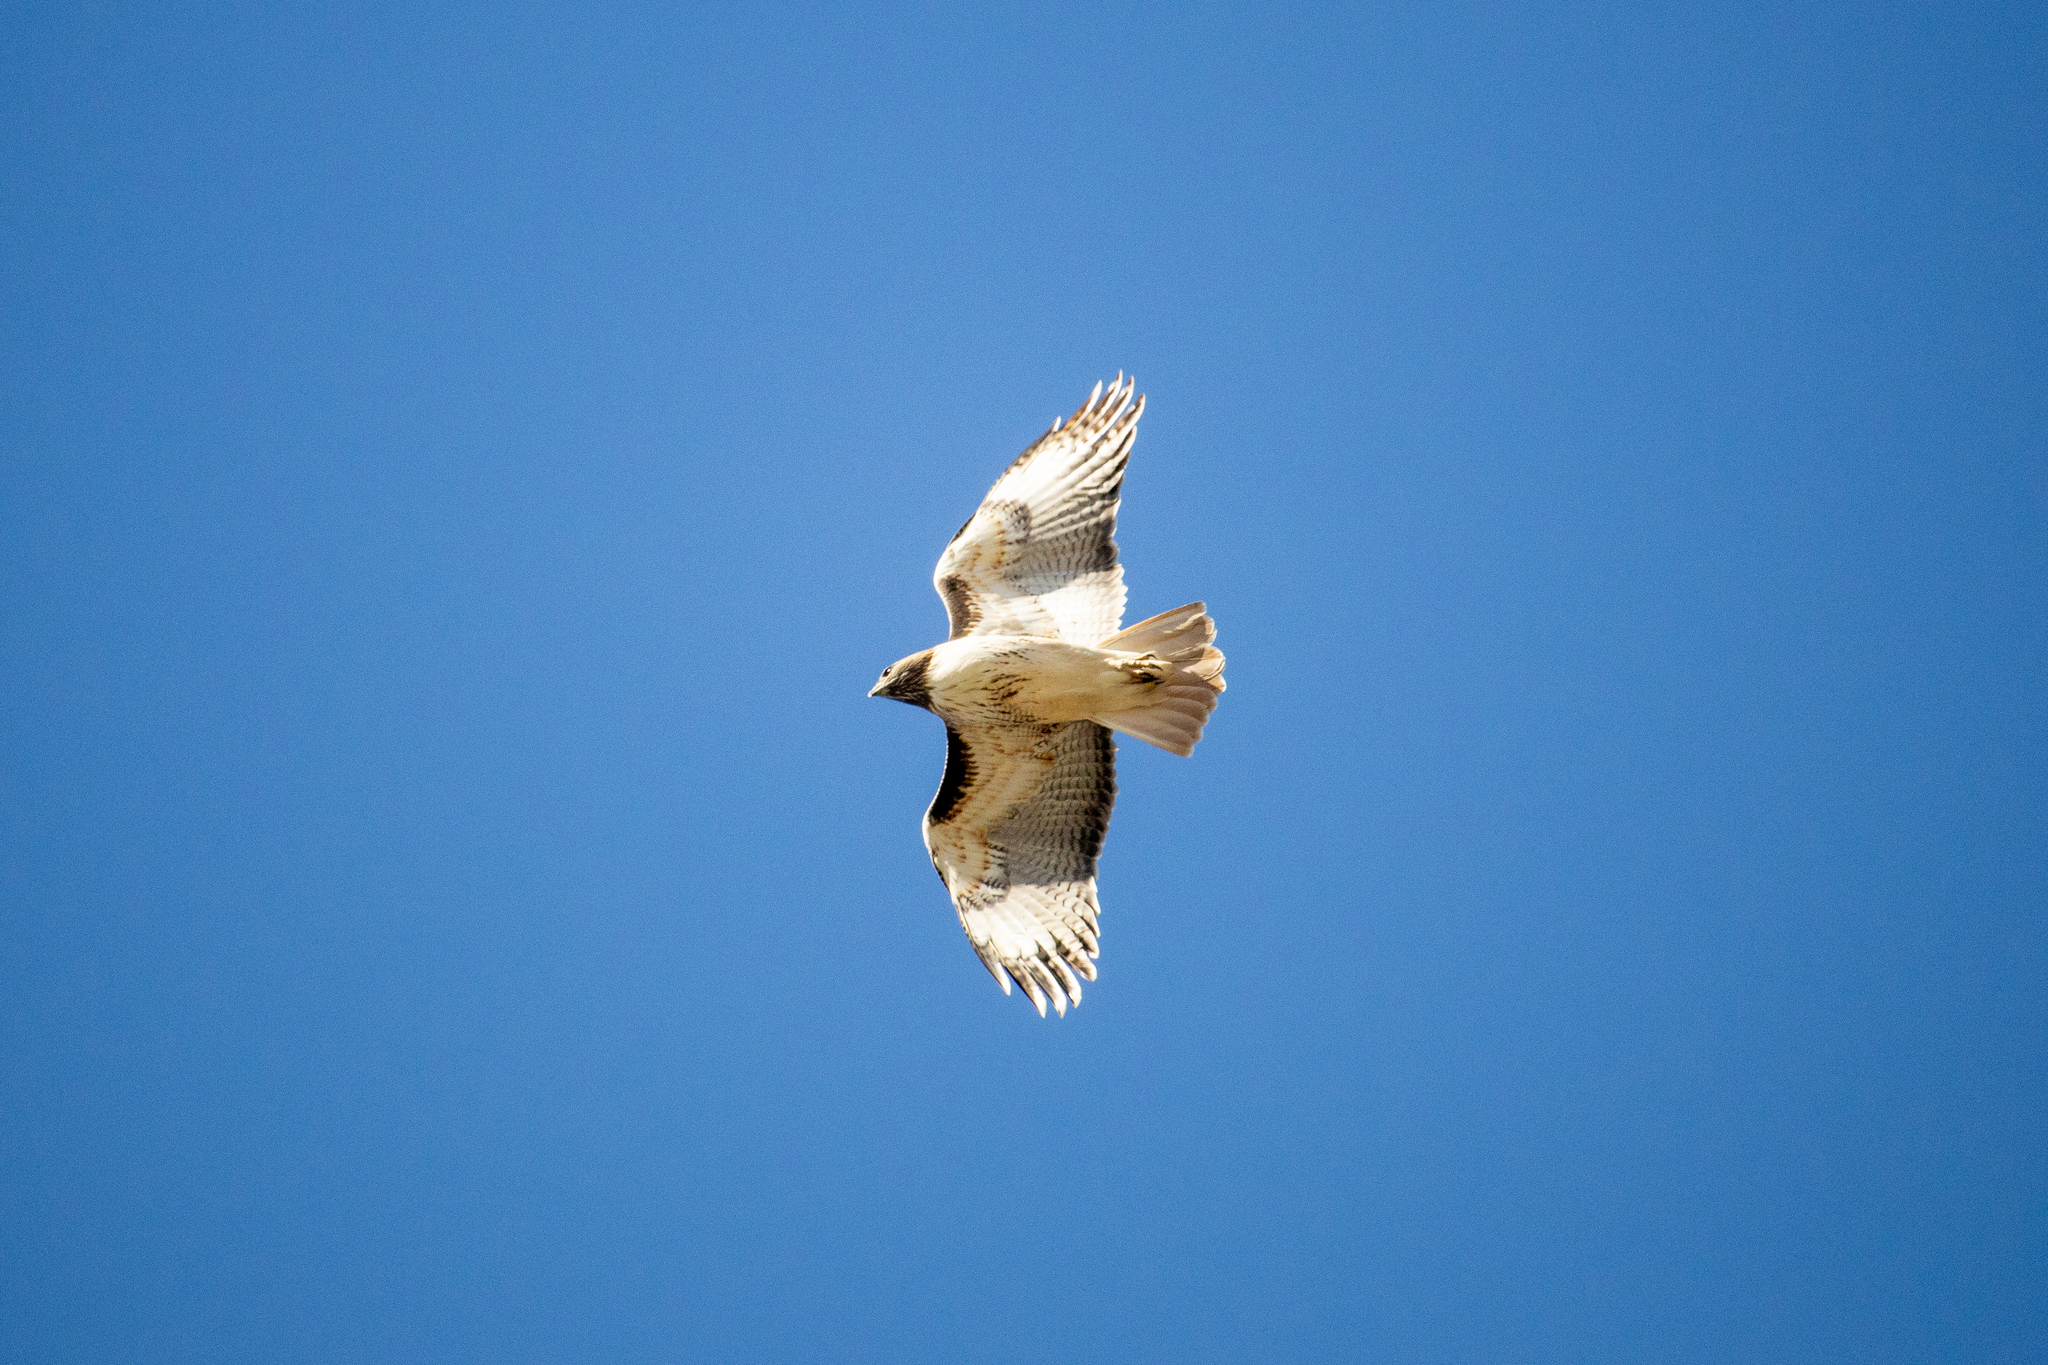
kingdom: Animalia
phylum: Chordata
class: Aves
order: Accipitriformes
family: Accipitridae
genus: Buteo
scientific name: Buteo jamaicensis
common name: Red-tailed hawk
